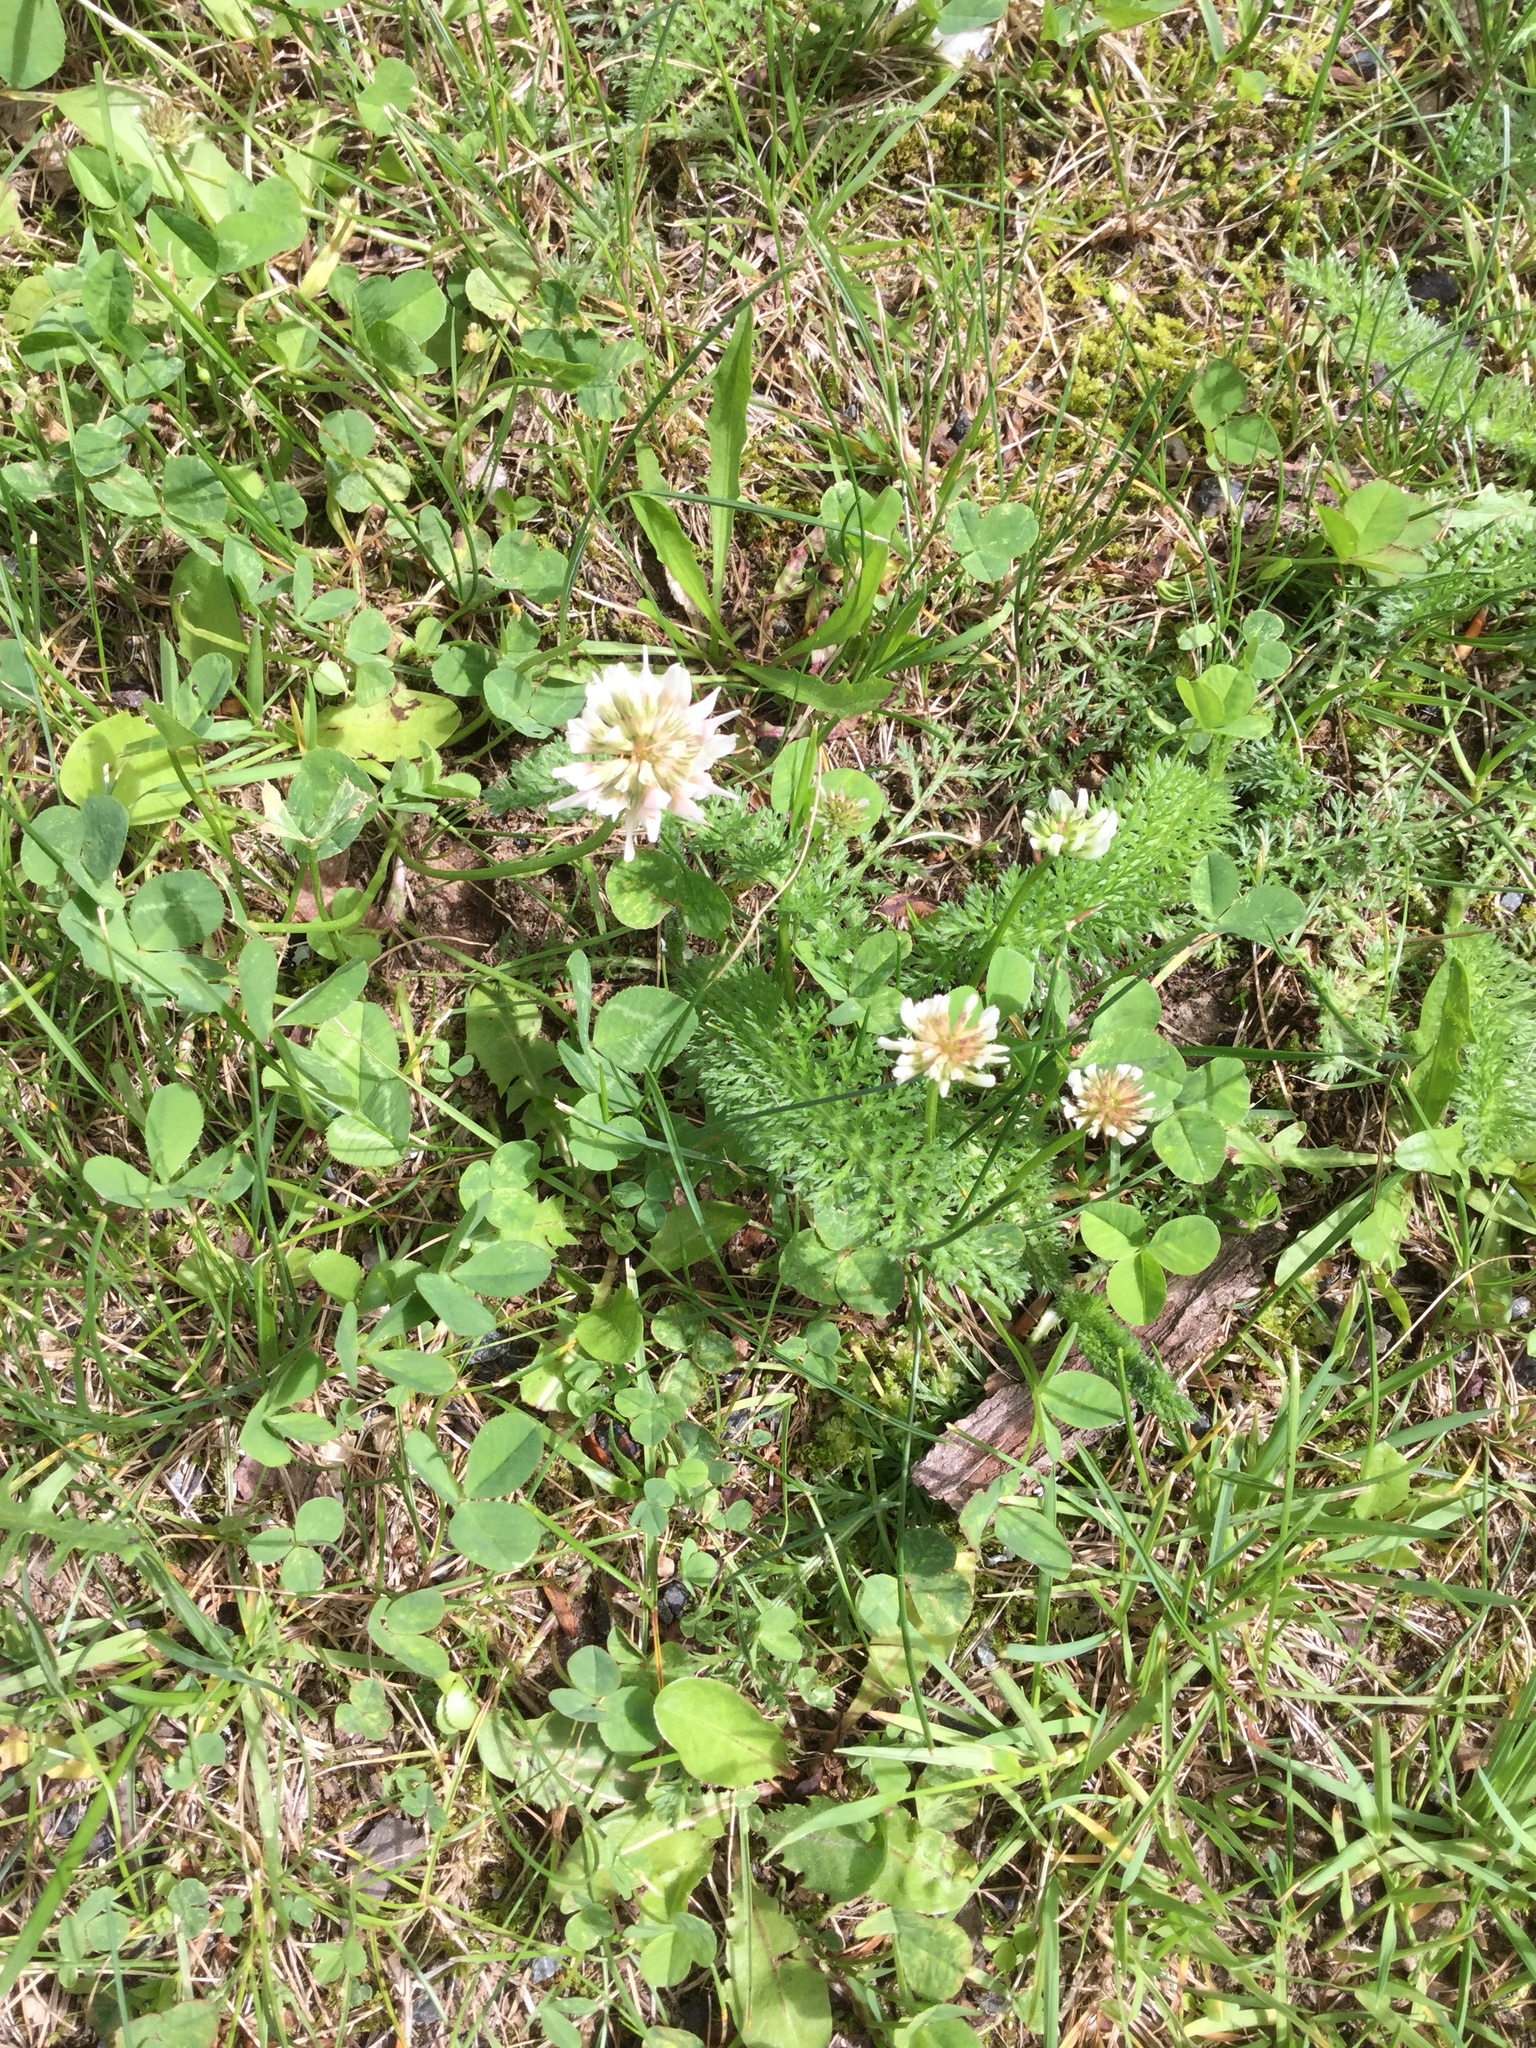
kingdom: Plantae
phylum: Tracheophyta
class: Magnoliopsida
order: Fabales
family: Fabaceae
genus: Trifolium
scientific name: Trifolium repens
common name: White clover
